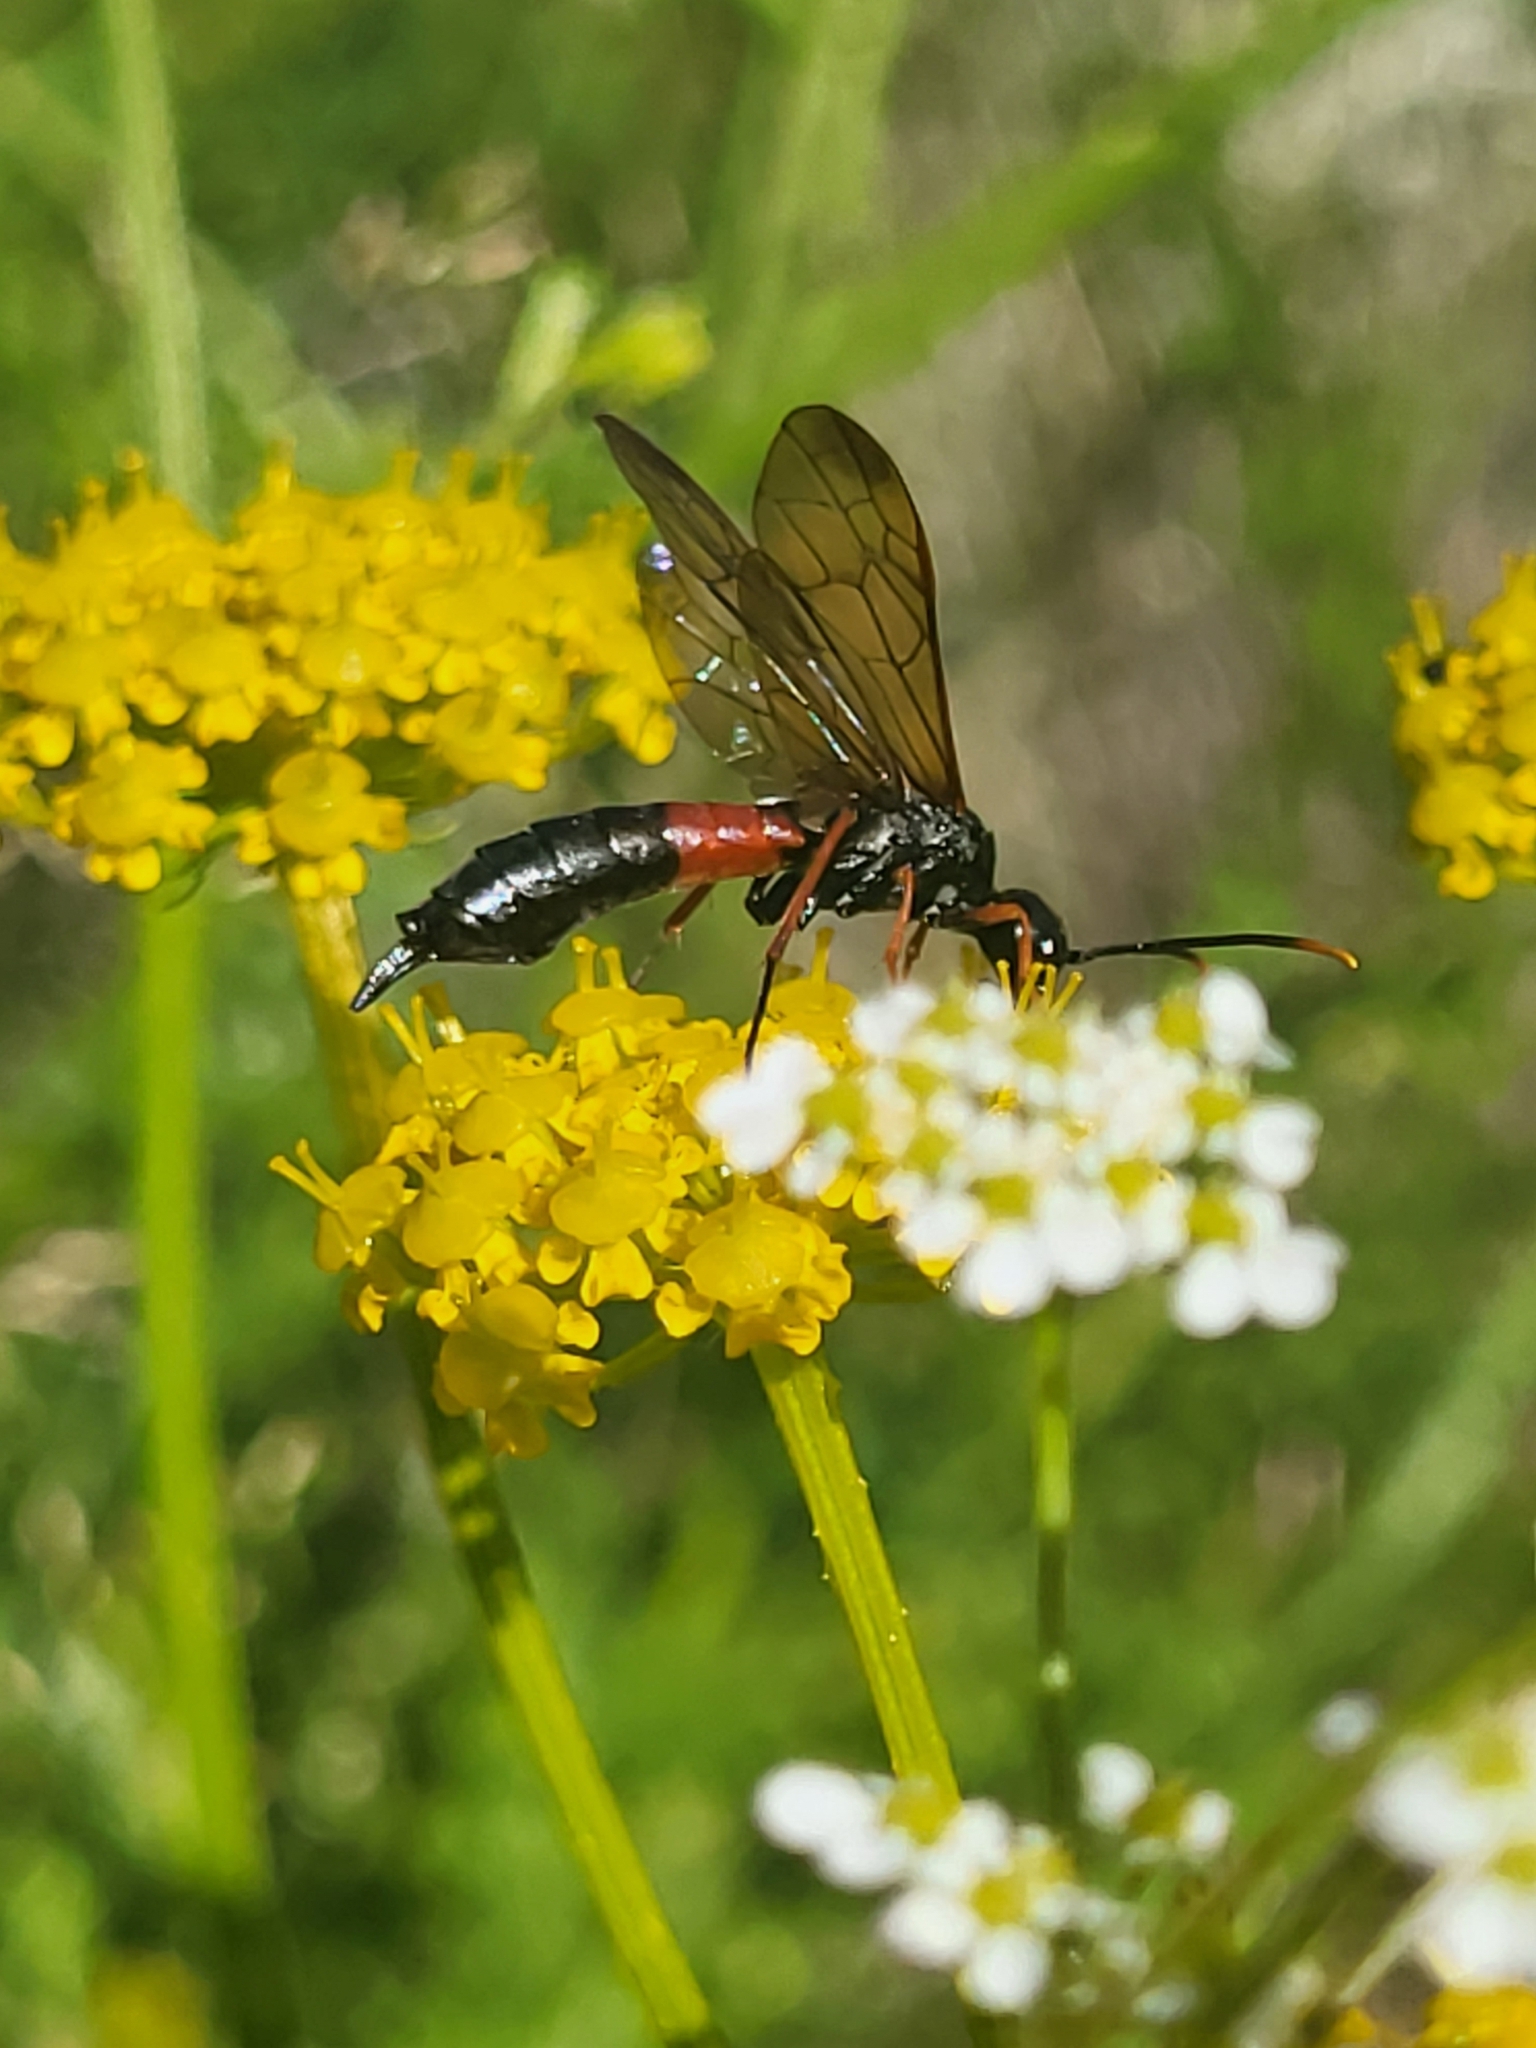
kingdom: Animalia
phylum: Arthropoda
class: Insecta
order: Hymenoptera
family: Cephidae
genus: Syrista
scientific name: Syrista parreyssii
